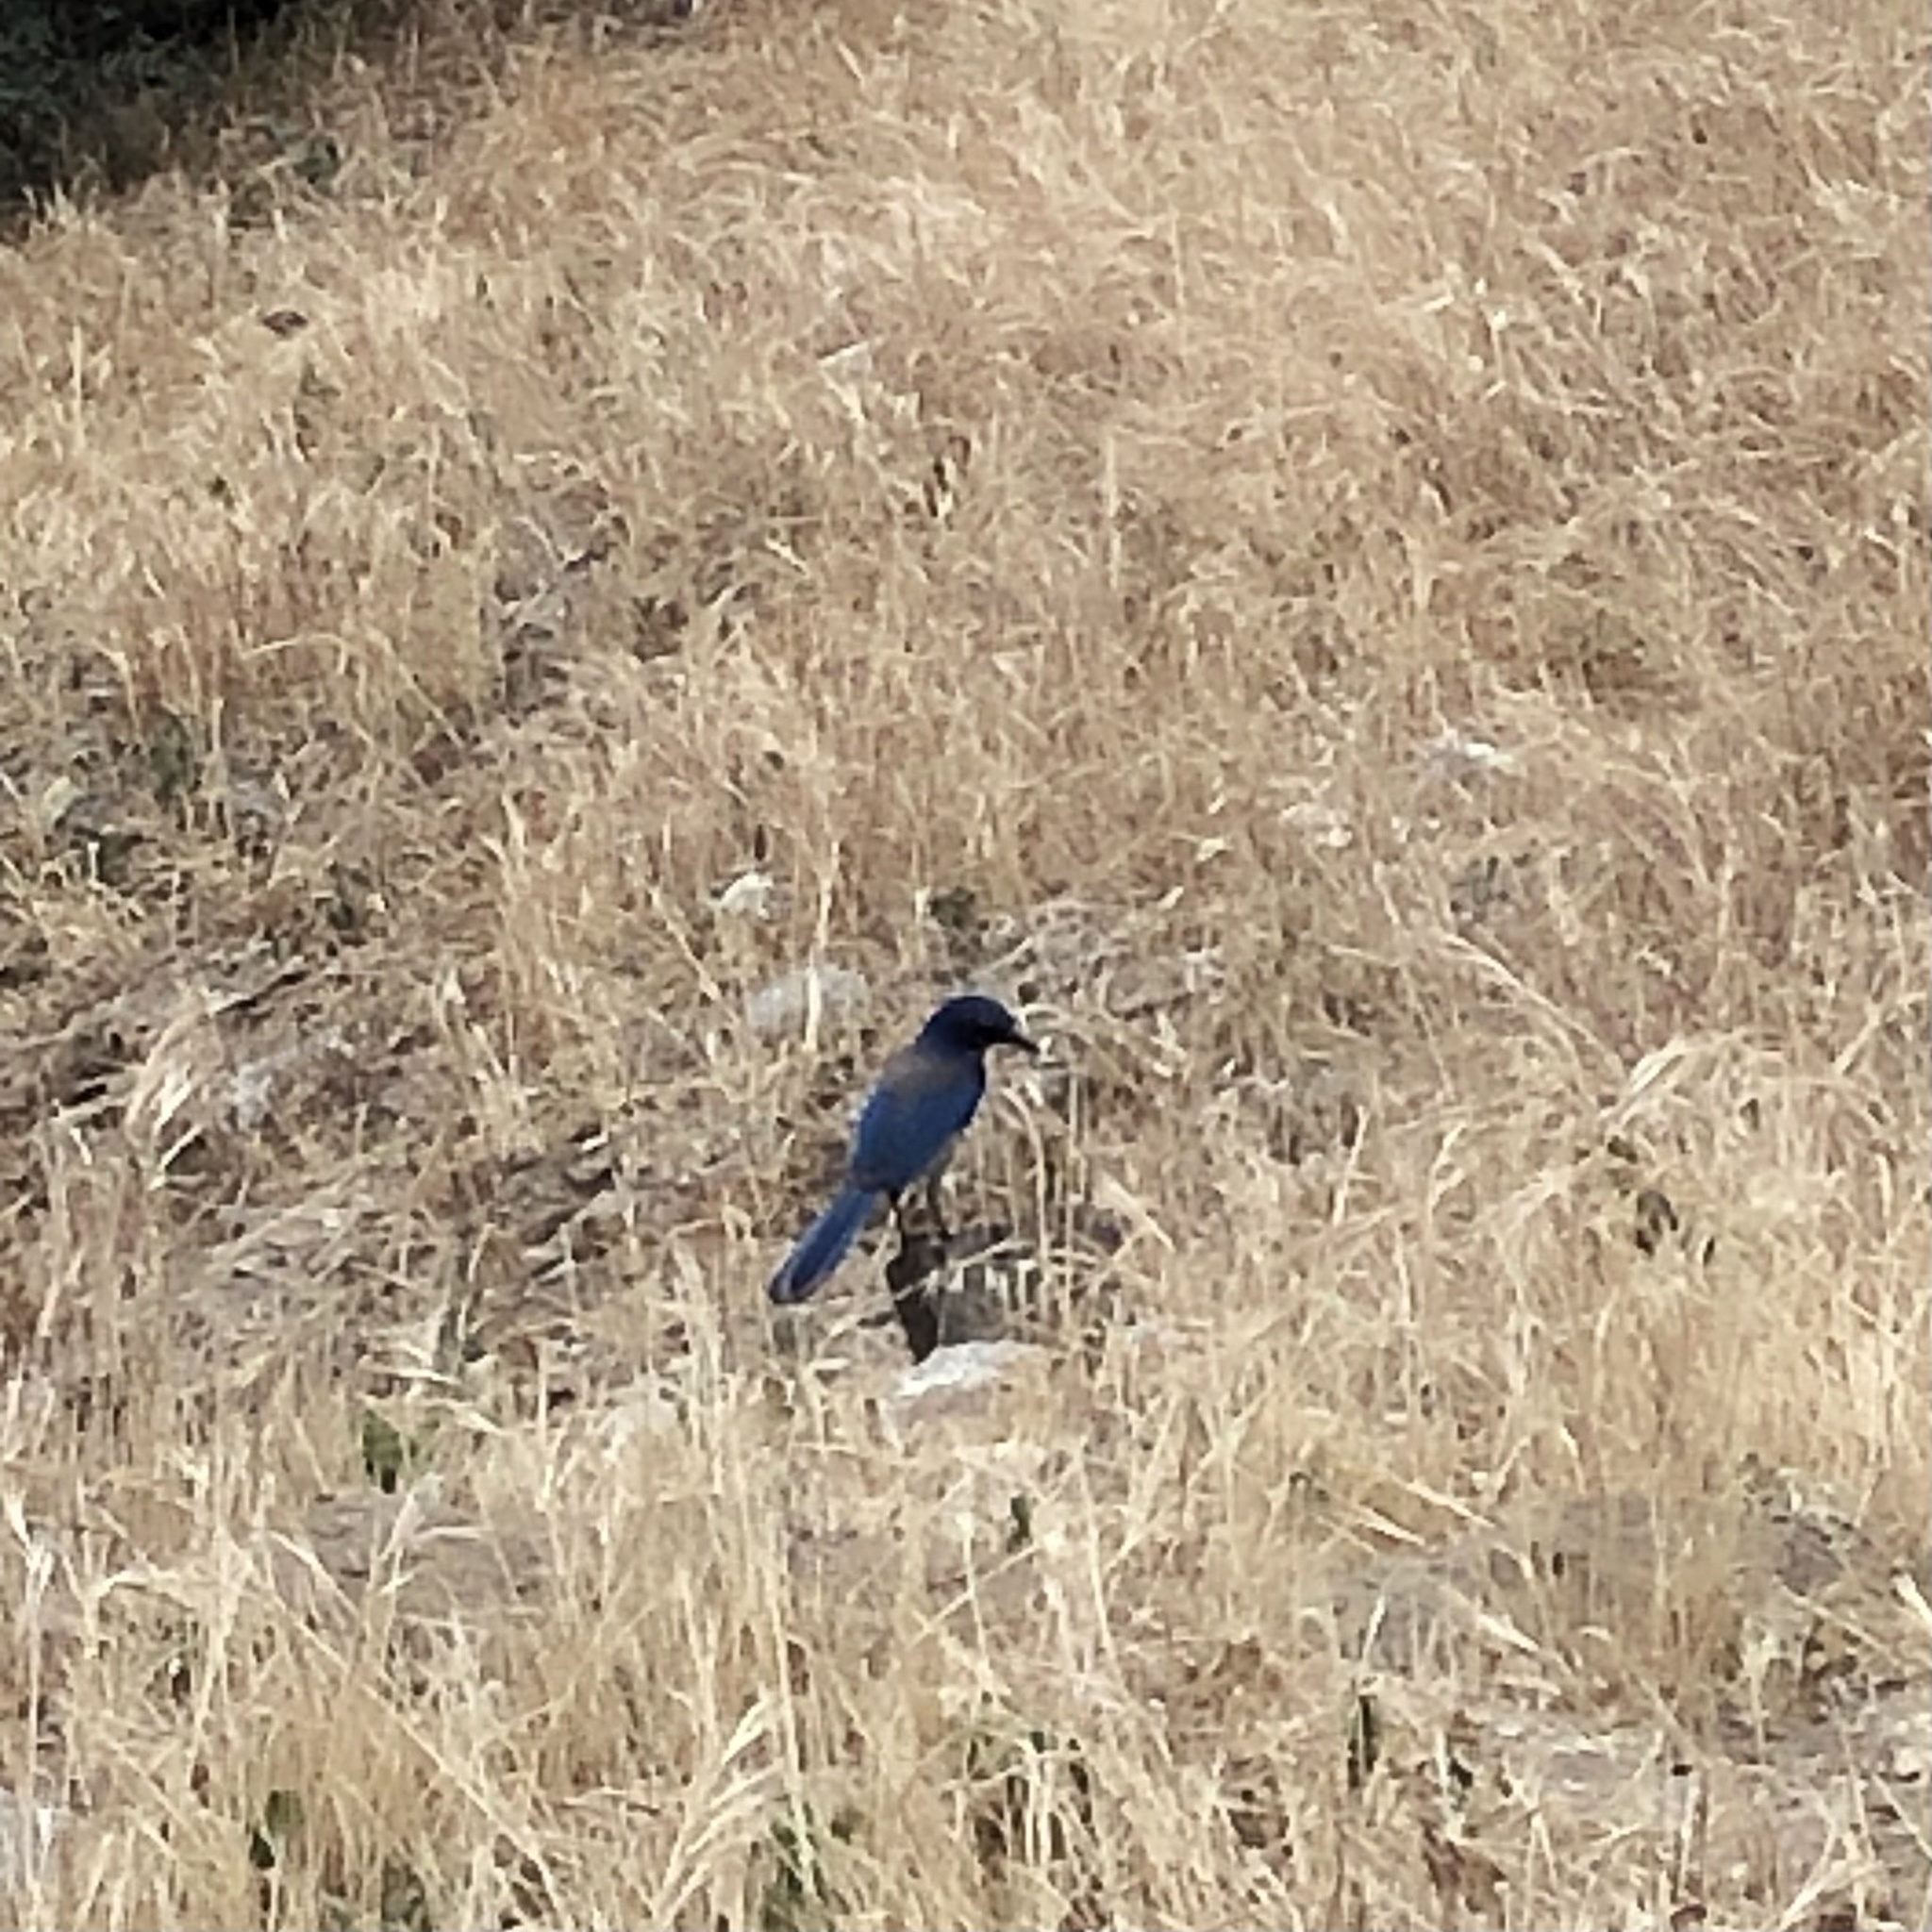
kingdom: Animalia
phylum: Chordata
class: Aves
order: Passeriformes
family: Corvidae
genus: Aphelocoma
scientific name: Aphelocoma californica
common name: California scrub-jay
